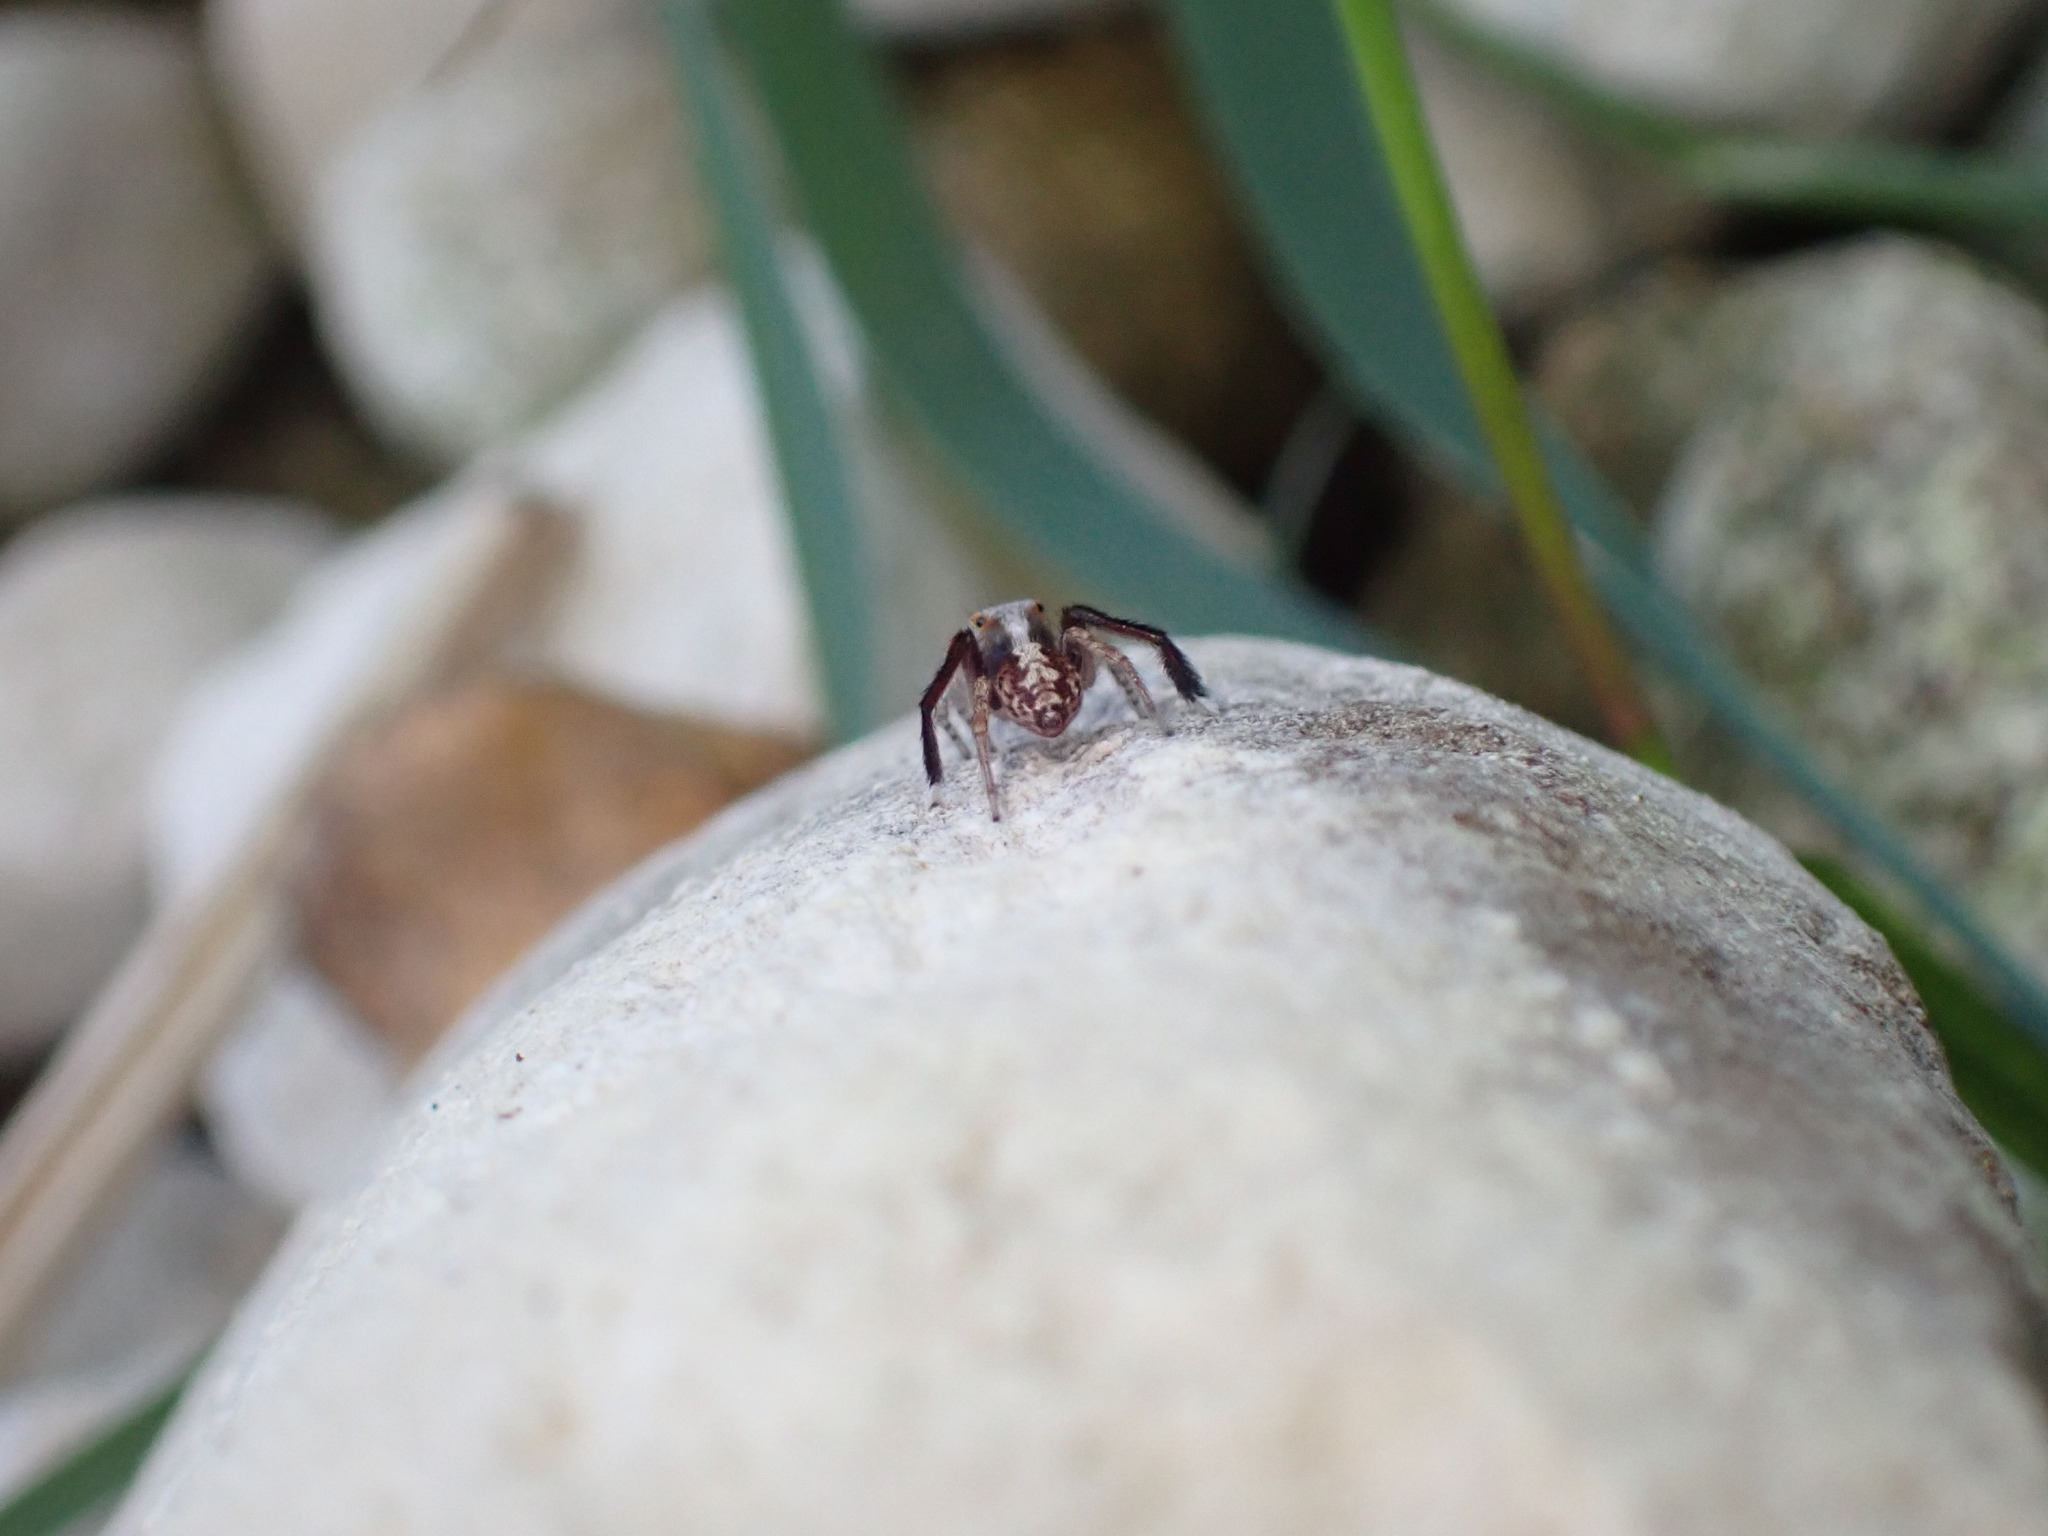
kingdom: Animalia
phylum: Arthropoda
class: Arachnida
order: Araneae
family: Salticidae
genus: Saitis
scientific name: Saitis barbipes
